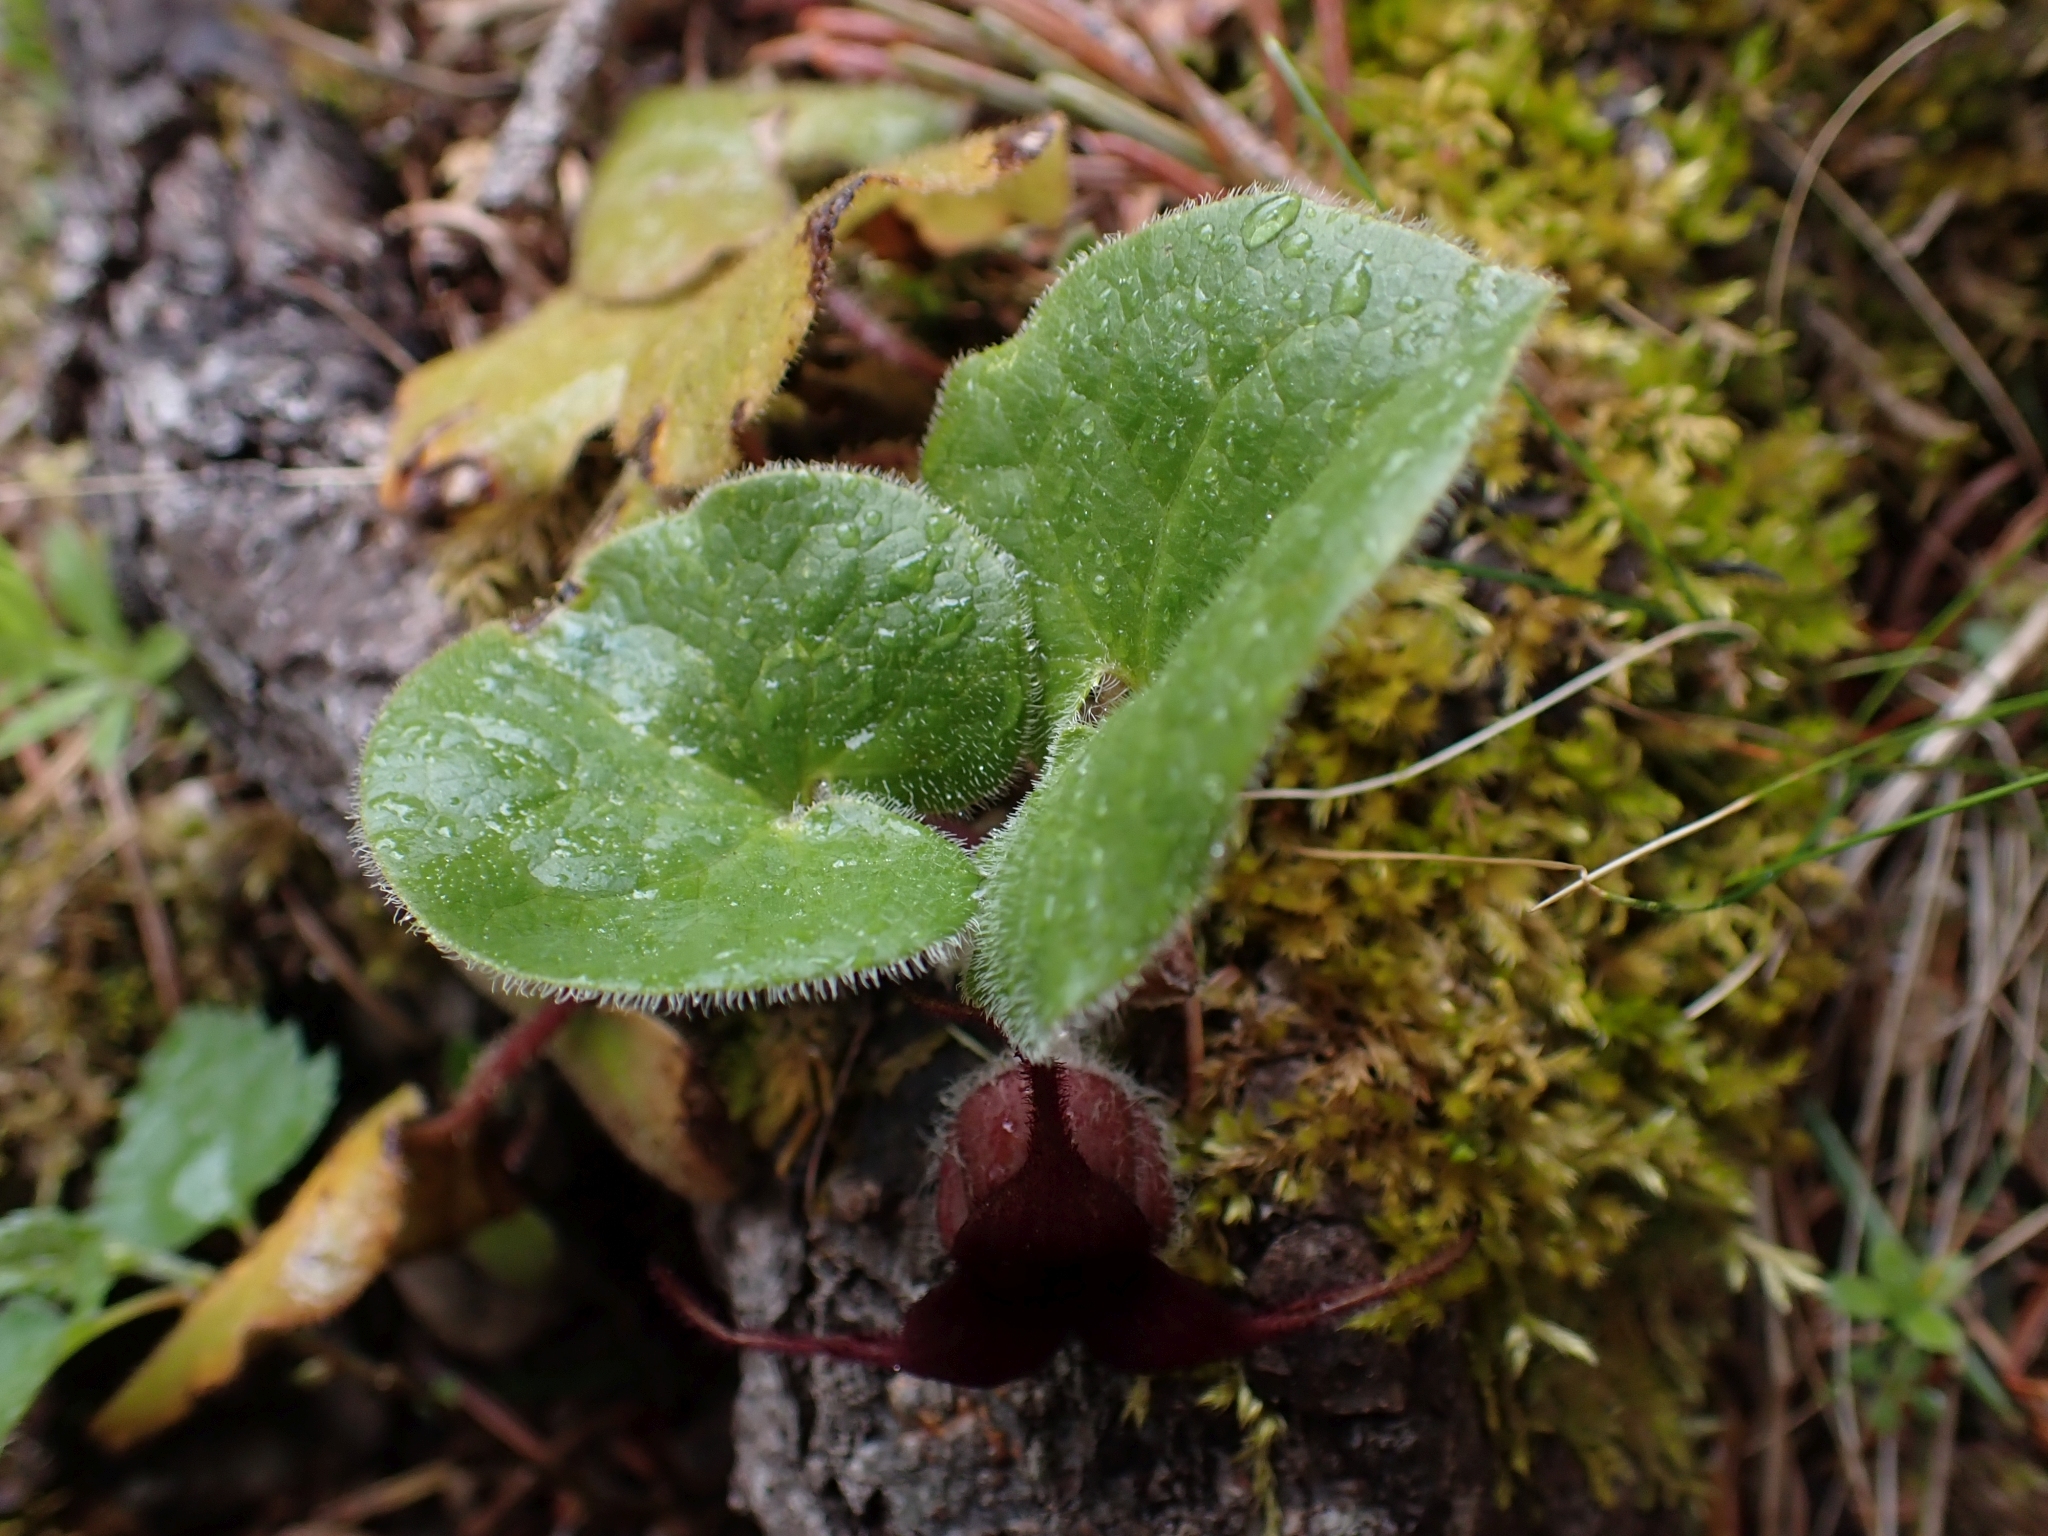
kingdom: Plantae
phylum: Tracheophyta
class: Magnoliopsida
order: Piperales
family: Aristolochiaceae
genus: Asarum
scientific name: Asarum caudatum
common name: Wild ginger
